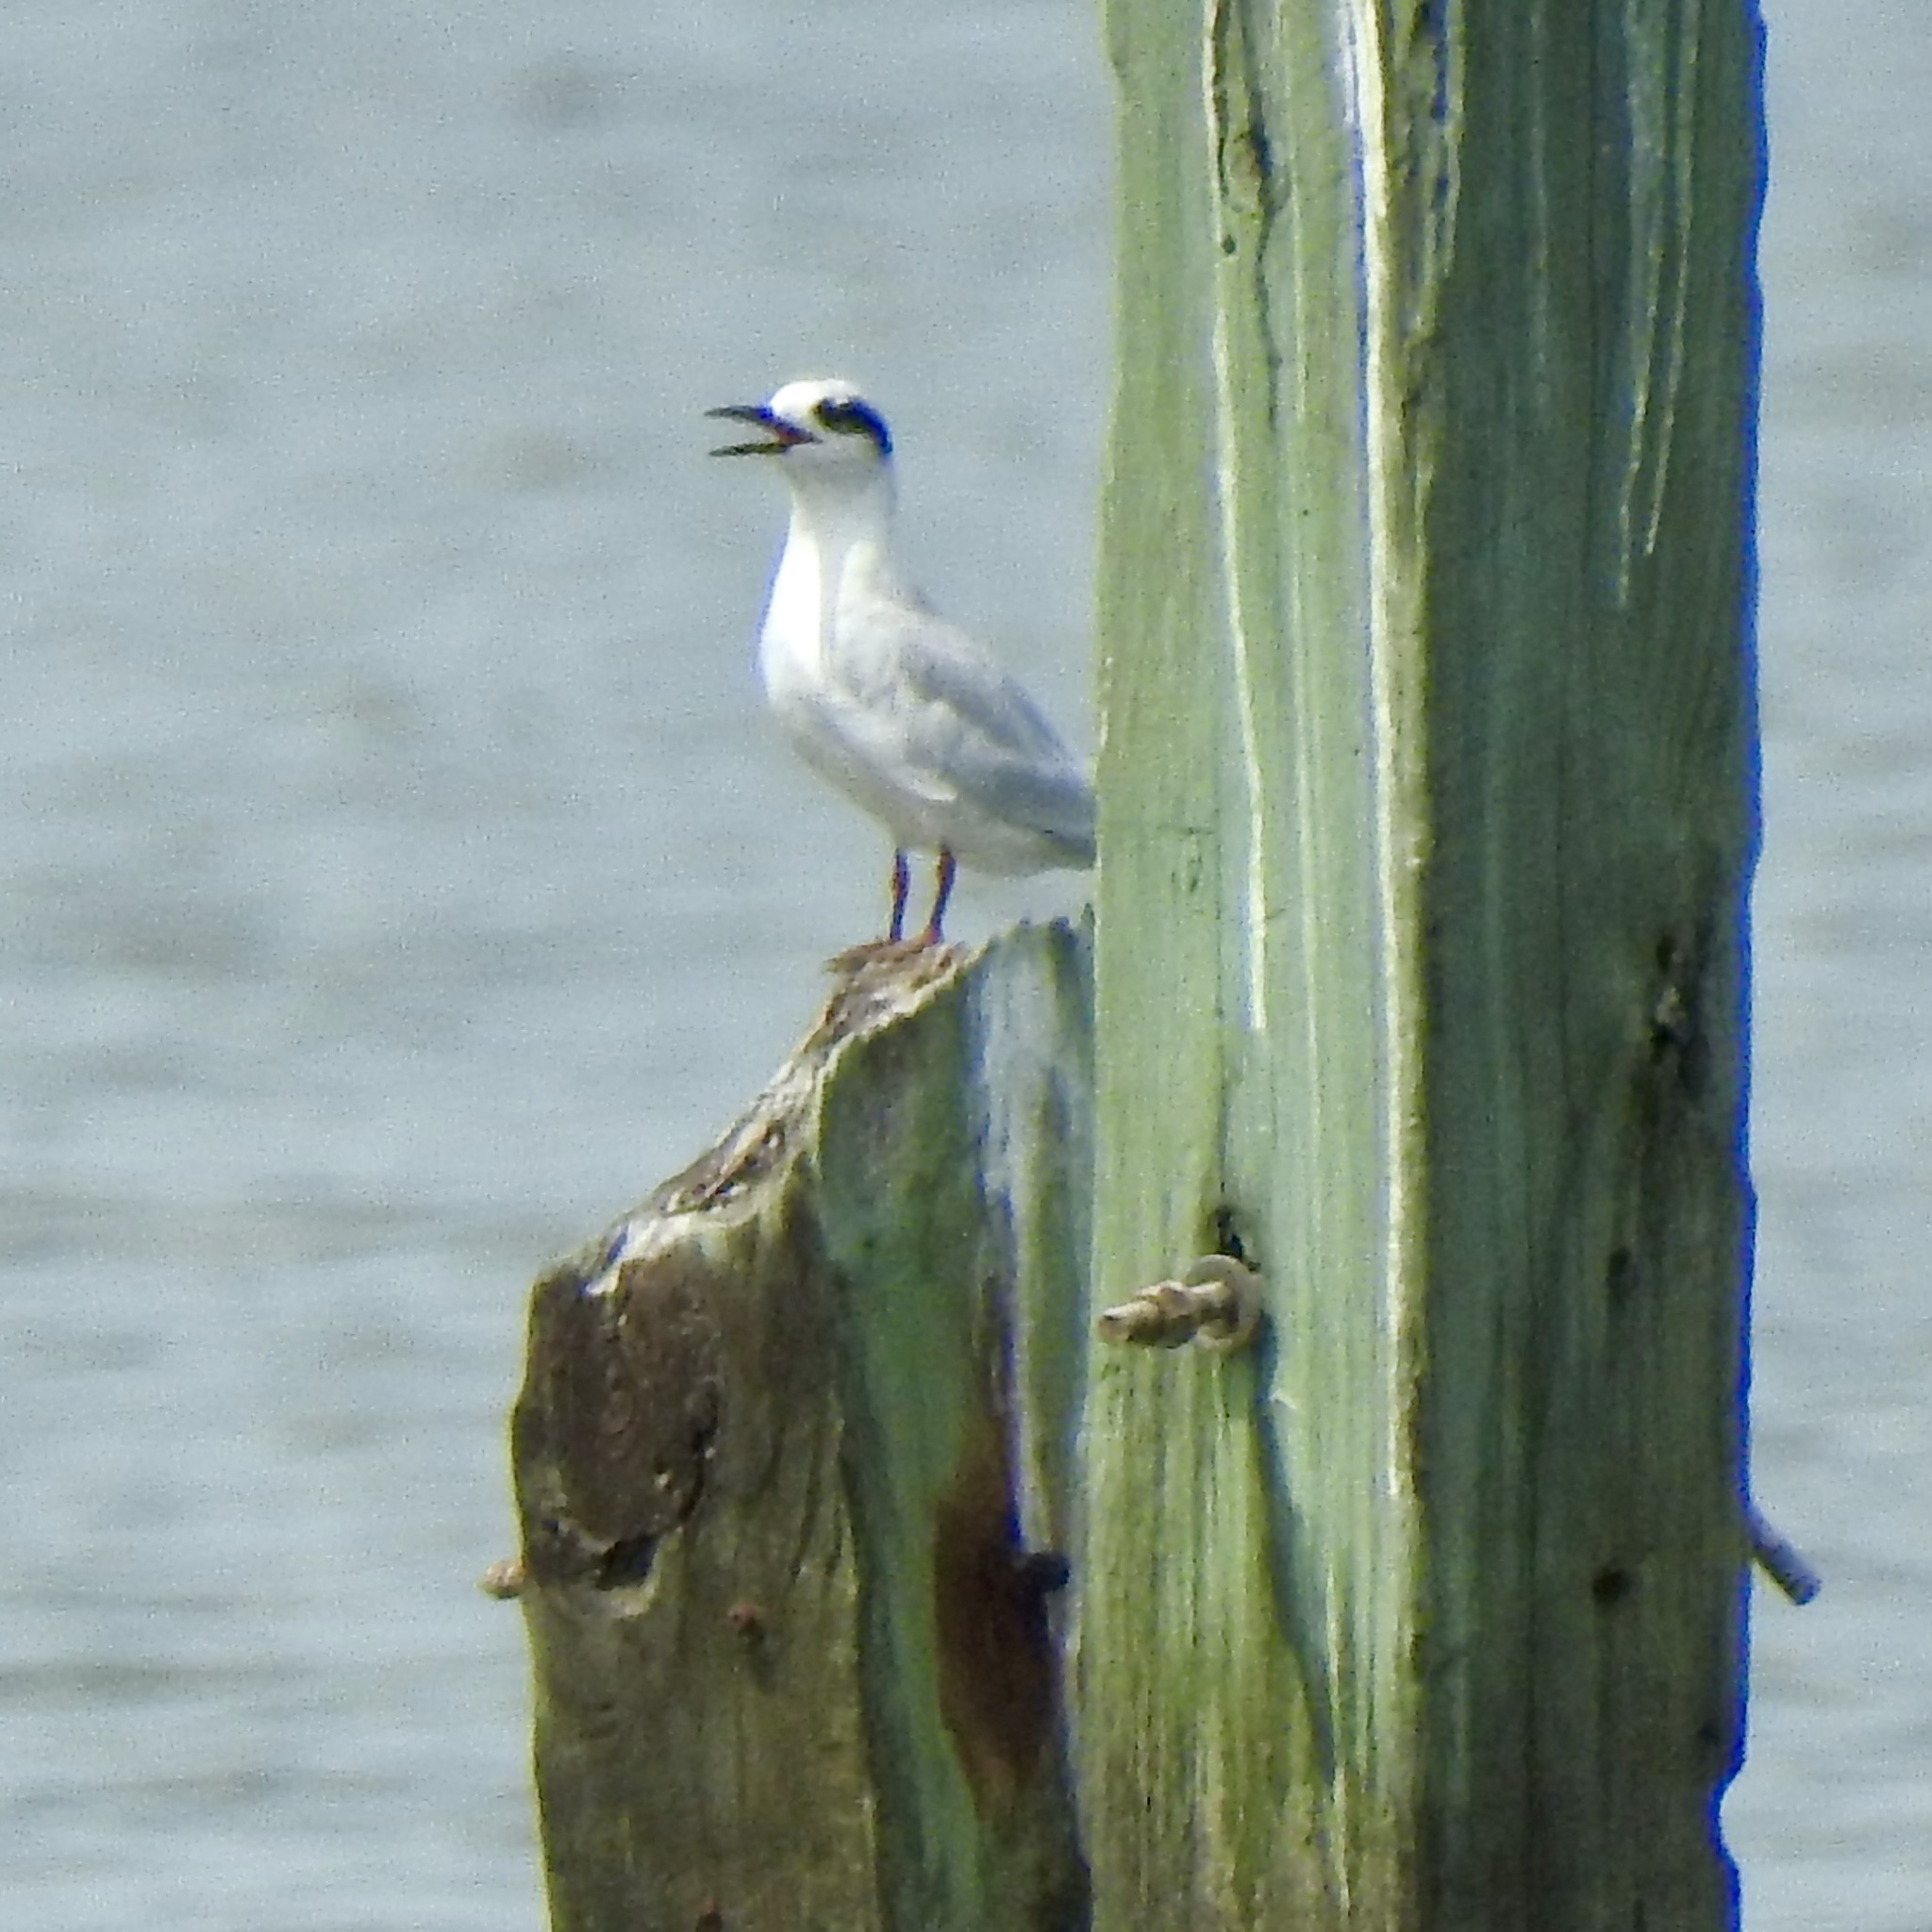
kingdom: Animalia
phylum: Chordata
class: Aves
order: Charadriiformes
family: Laridae
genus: Sterna
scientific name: Sterna forsteri
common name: Forster's tern
